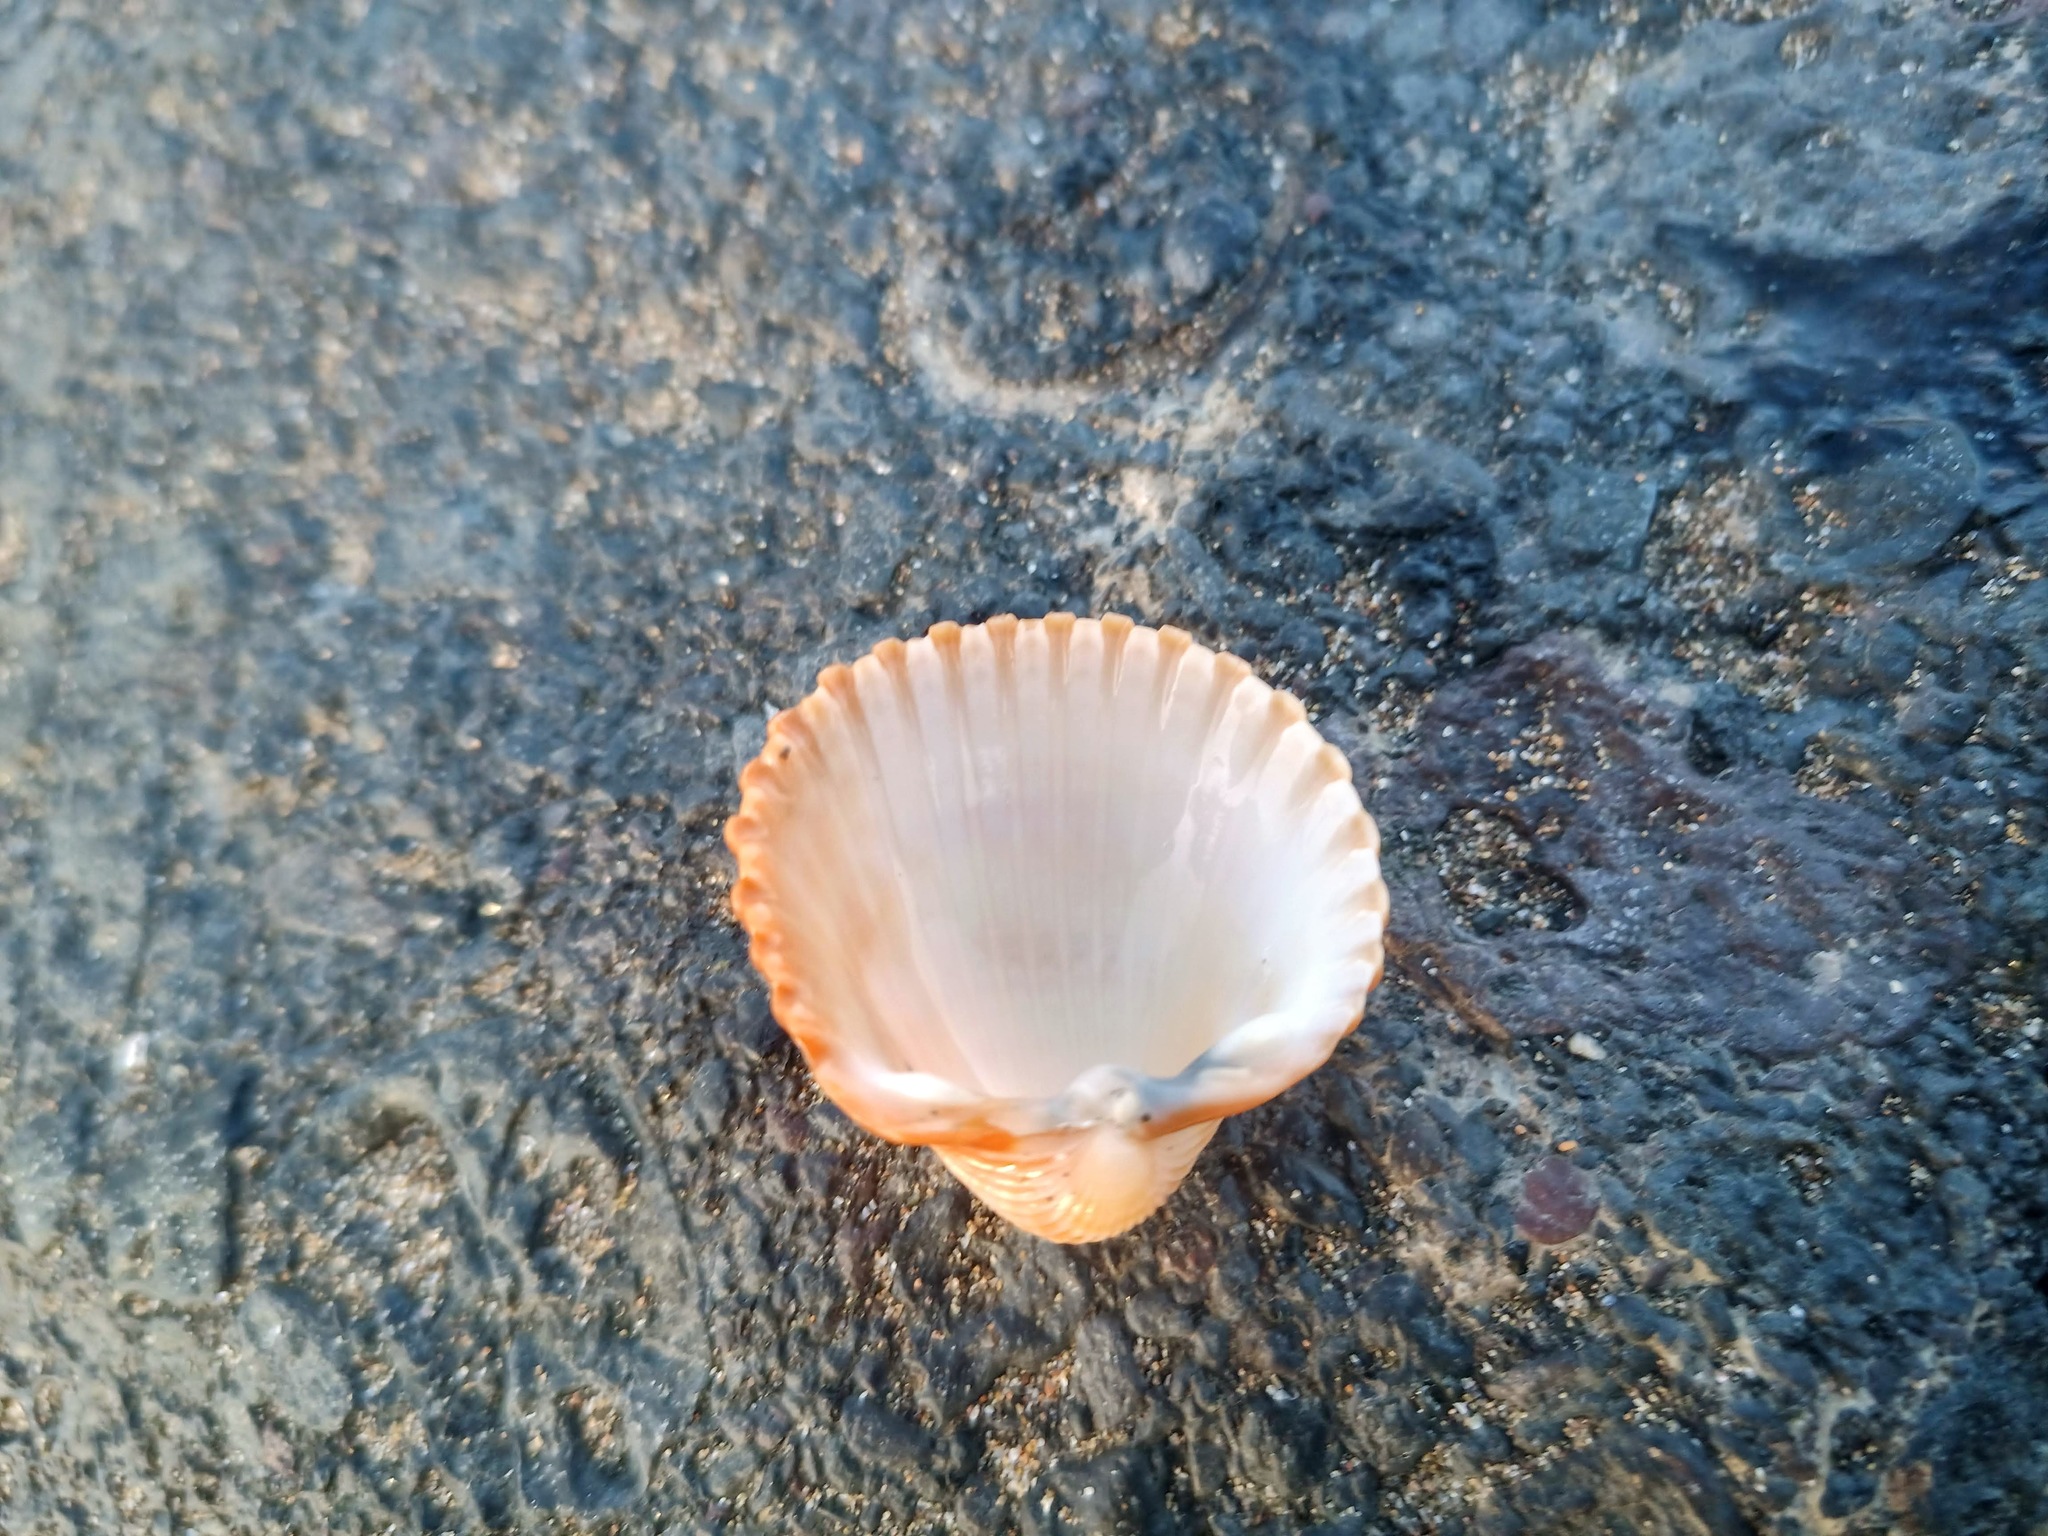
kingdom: Animalia
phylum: Mollusca
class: Bivalvia
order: Cardiida
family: Cardiidae
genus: Acanthocardia
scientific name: Acanthocardia tuberculata
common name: Rough cockle
